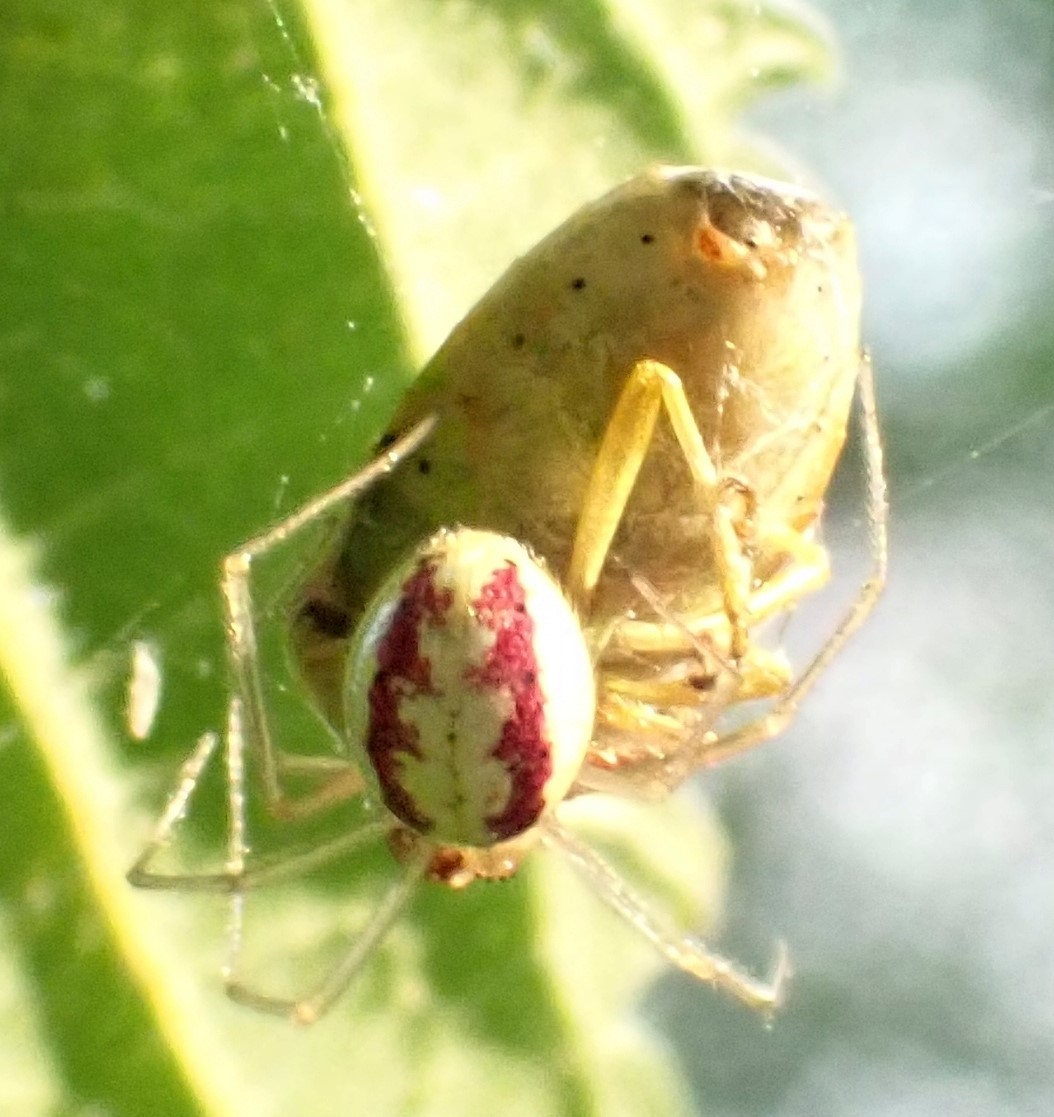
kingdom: Animalia
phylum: Arthropoda
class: Arachnida
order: Araneae
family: Theridiidae
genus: Enoplognatha
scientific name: Enoplognatha
